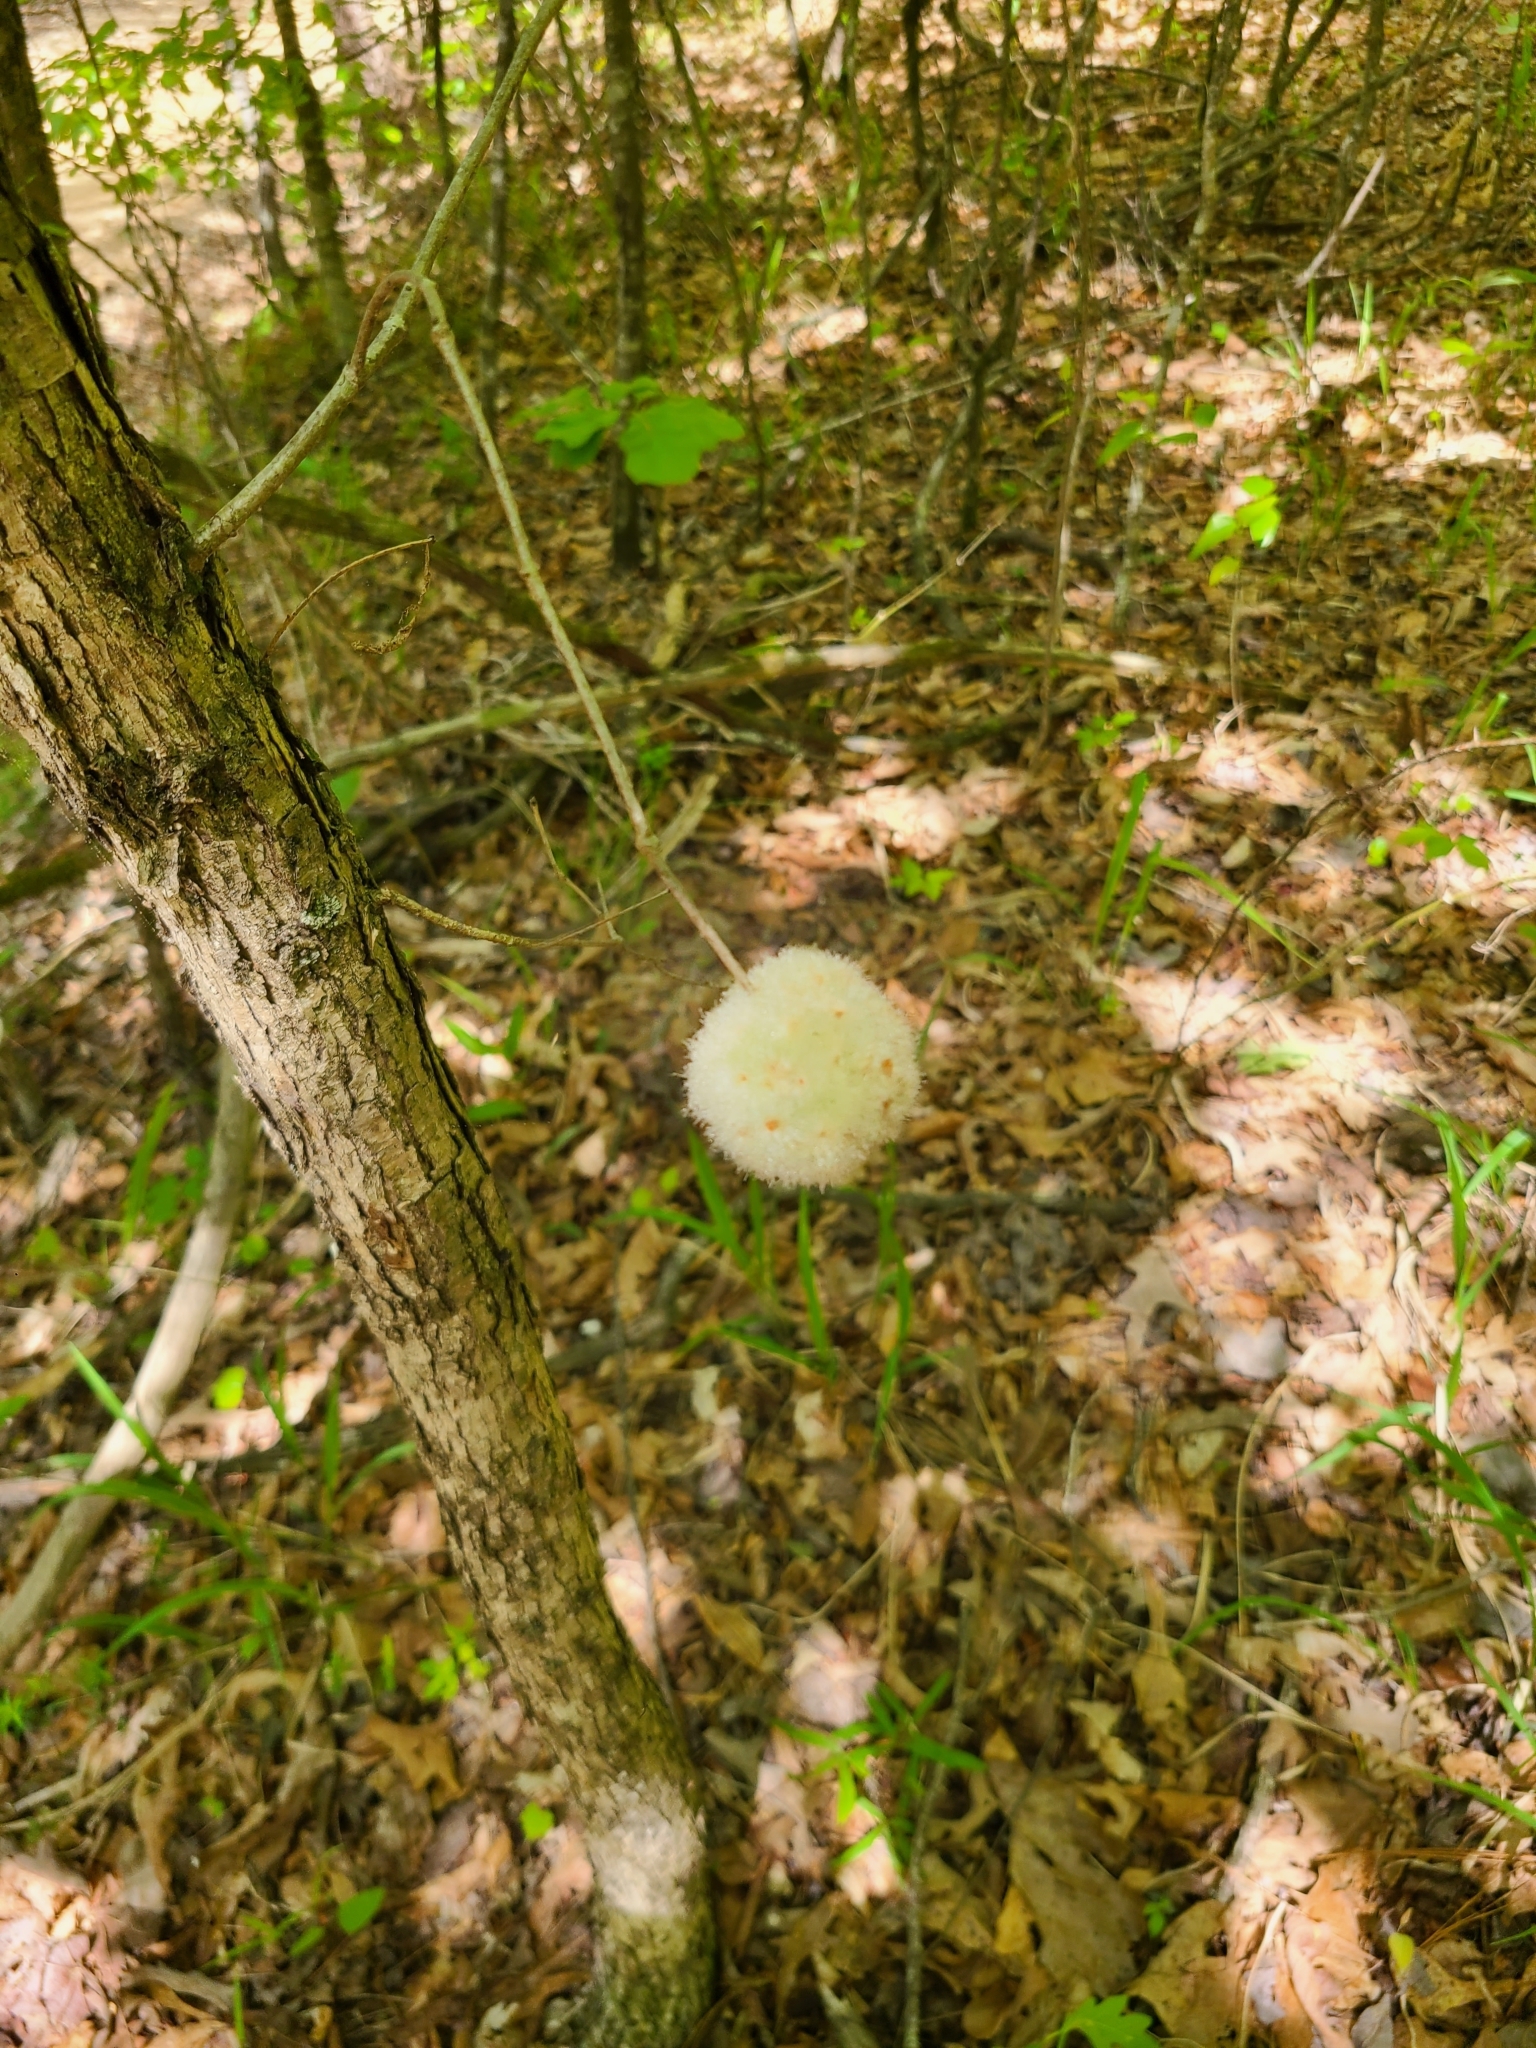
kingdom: Animalia
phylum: Arthropoda
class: Insecta
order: Hymenoptera
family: Cynipidae
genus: Callirhytis
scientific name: Callirhytis
